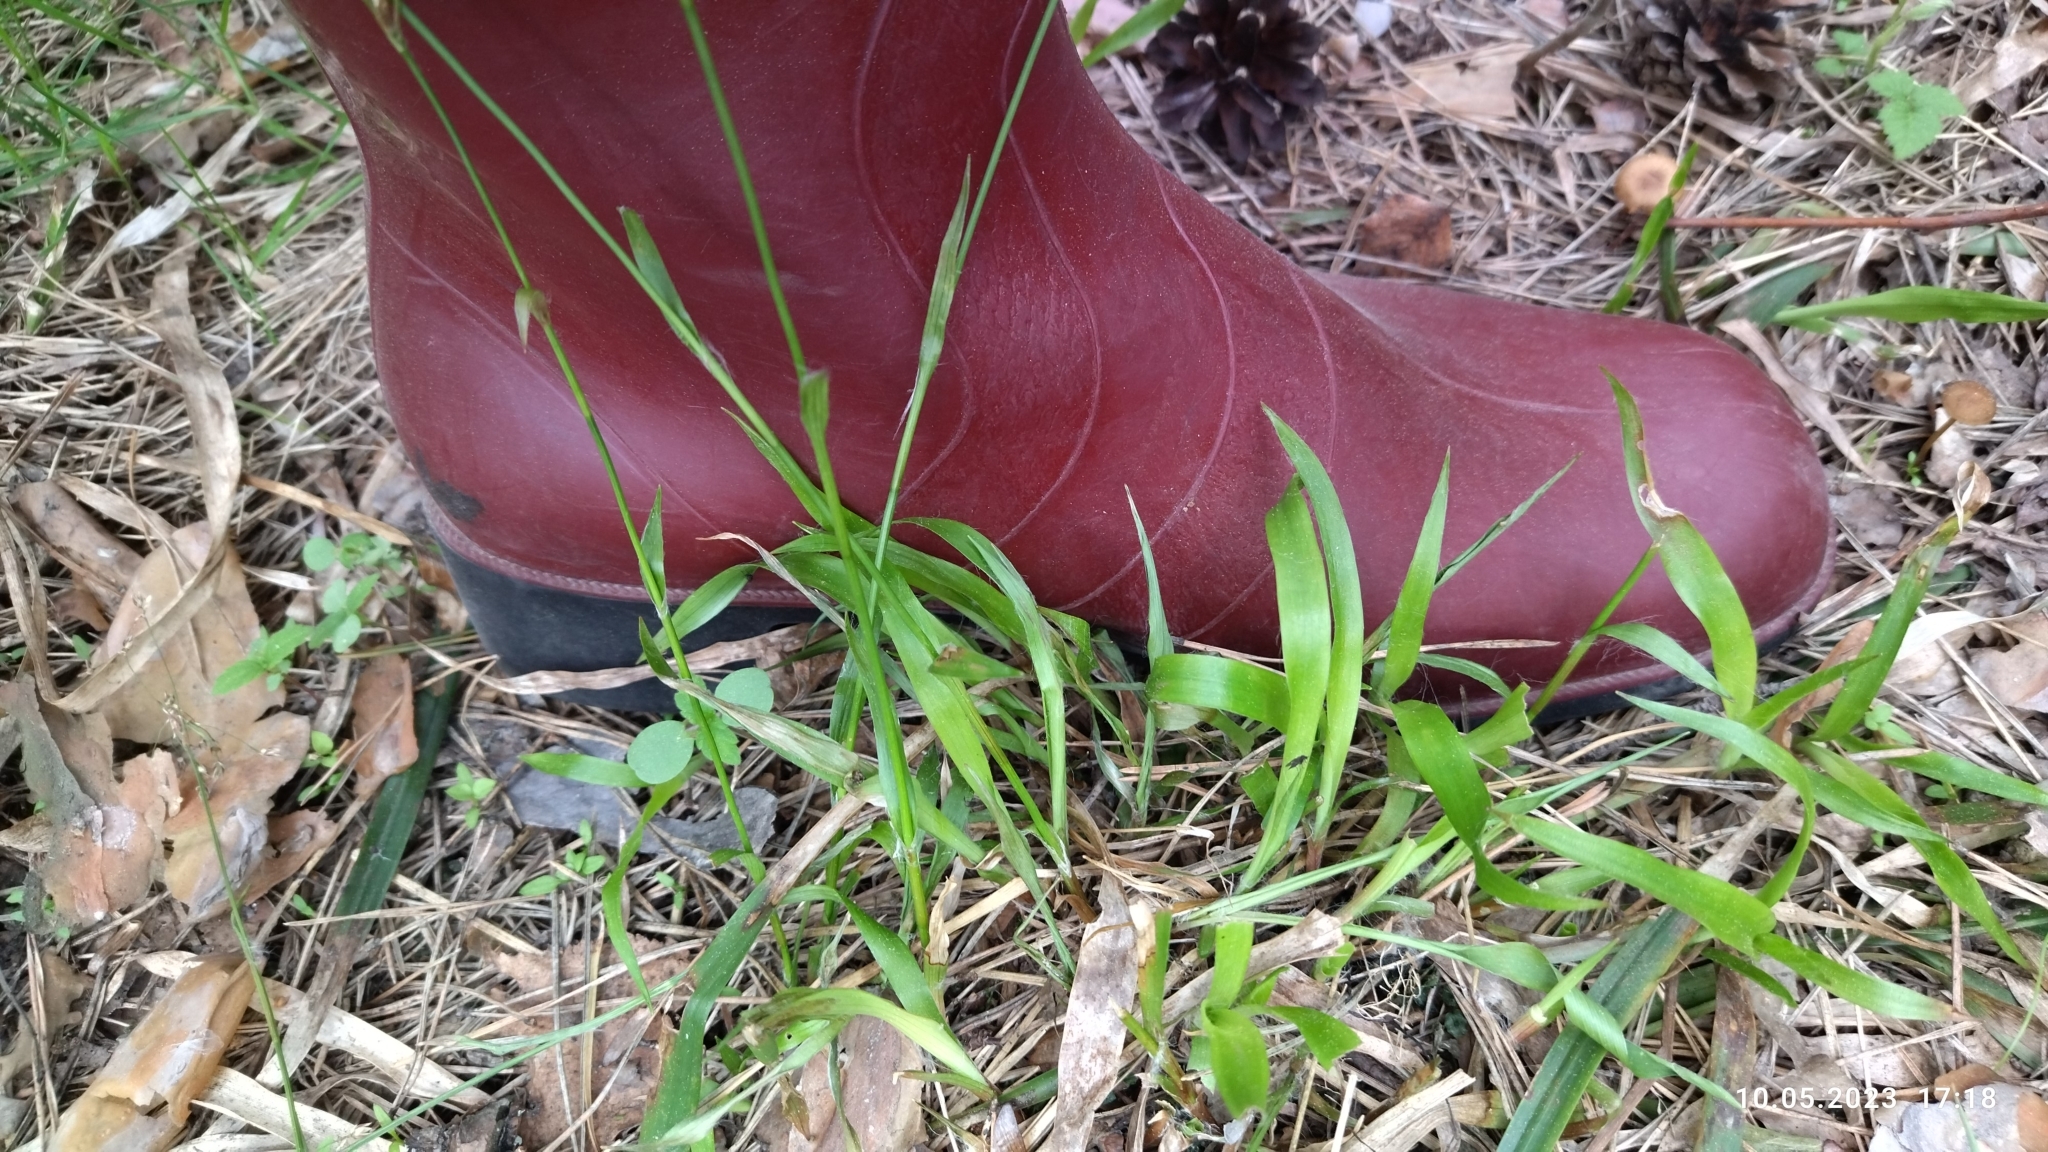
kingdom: Plantae
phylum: Tracheophyta
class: Liliopsida
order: Poales
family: Juncaceae
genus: Luzula
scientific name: Luzula pilosa
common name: Hairy wood-rush
